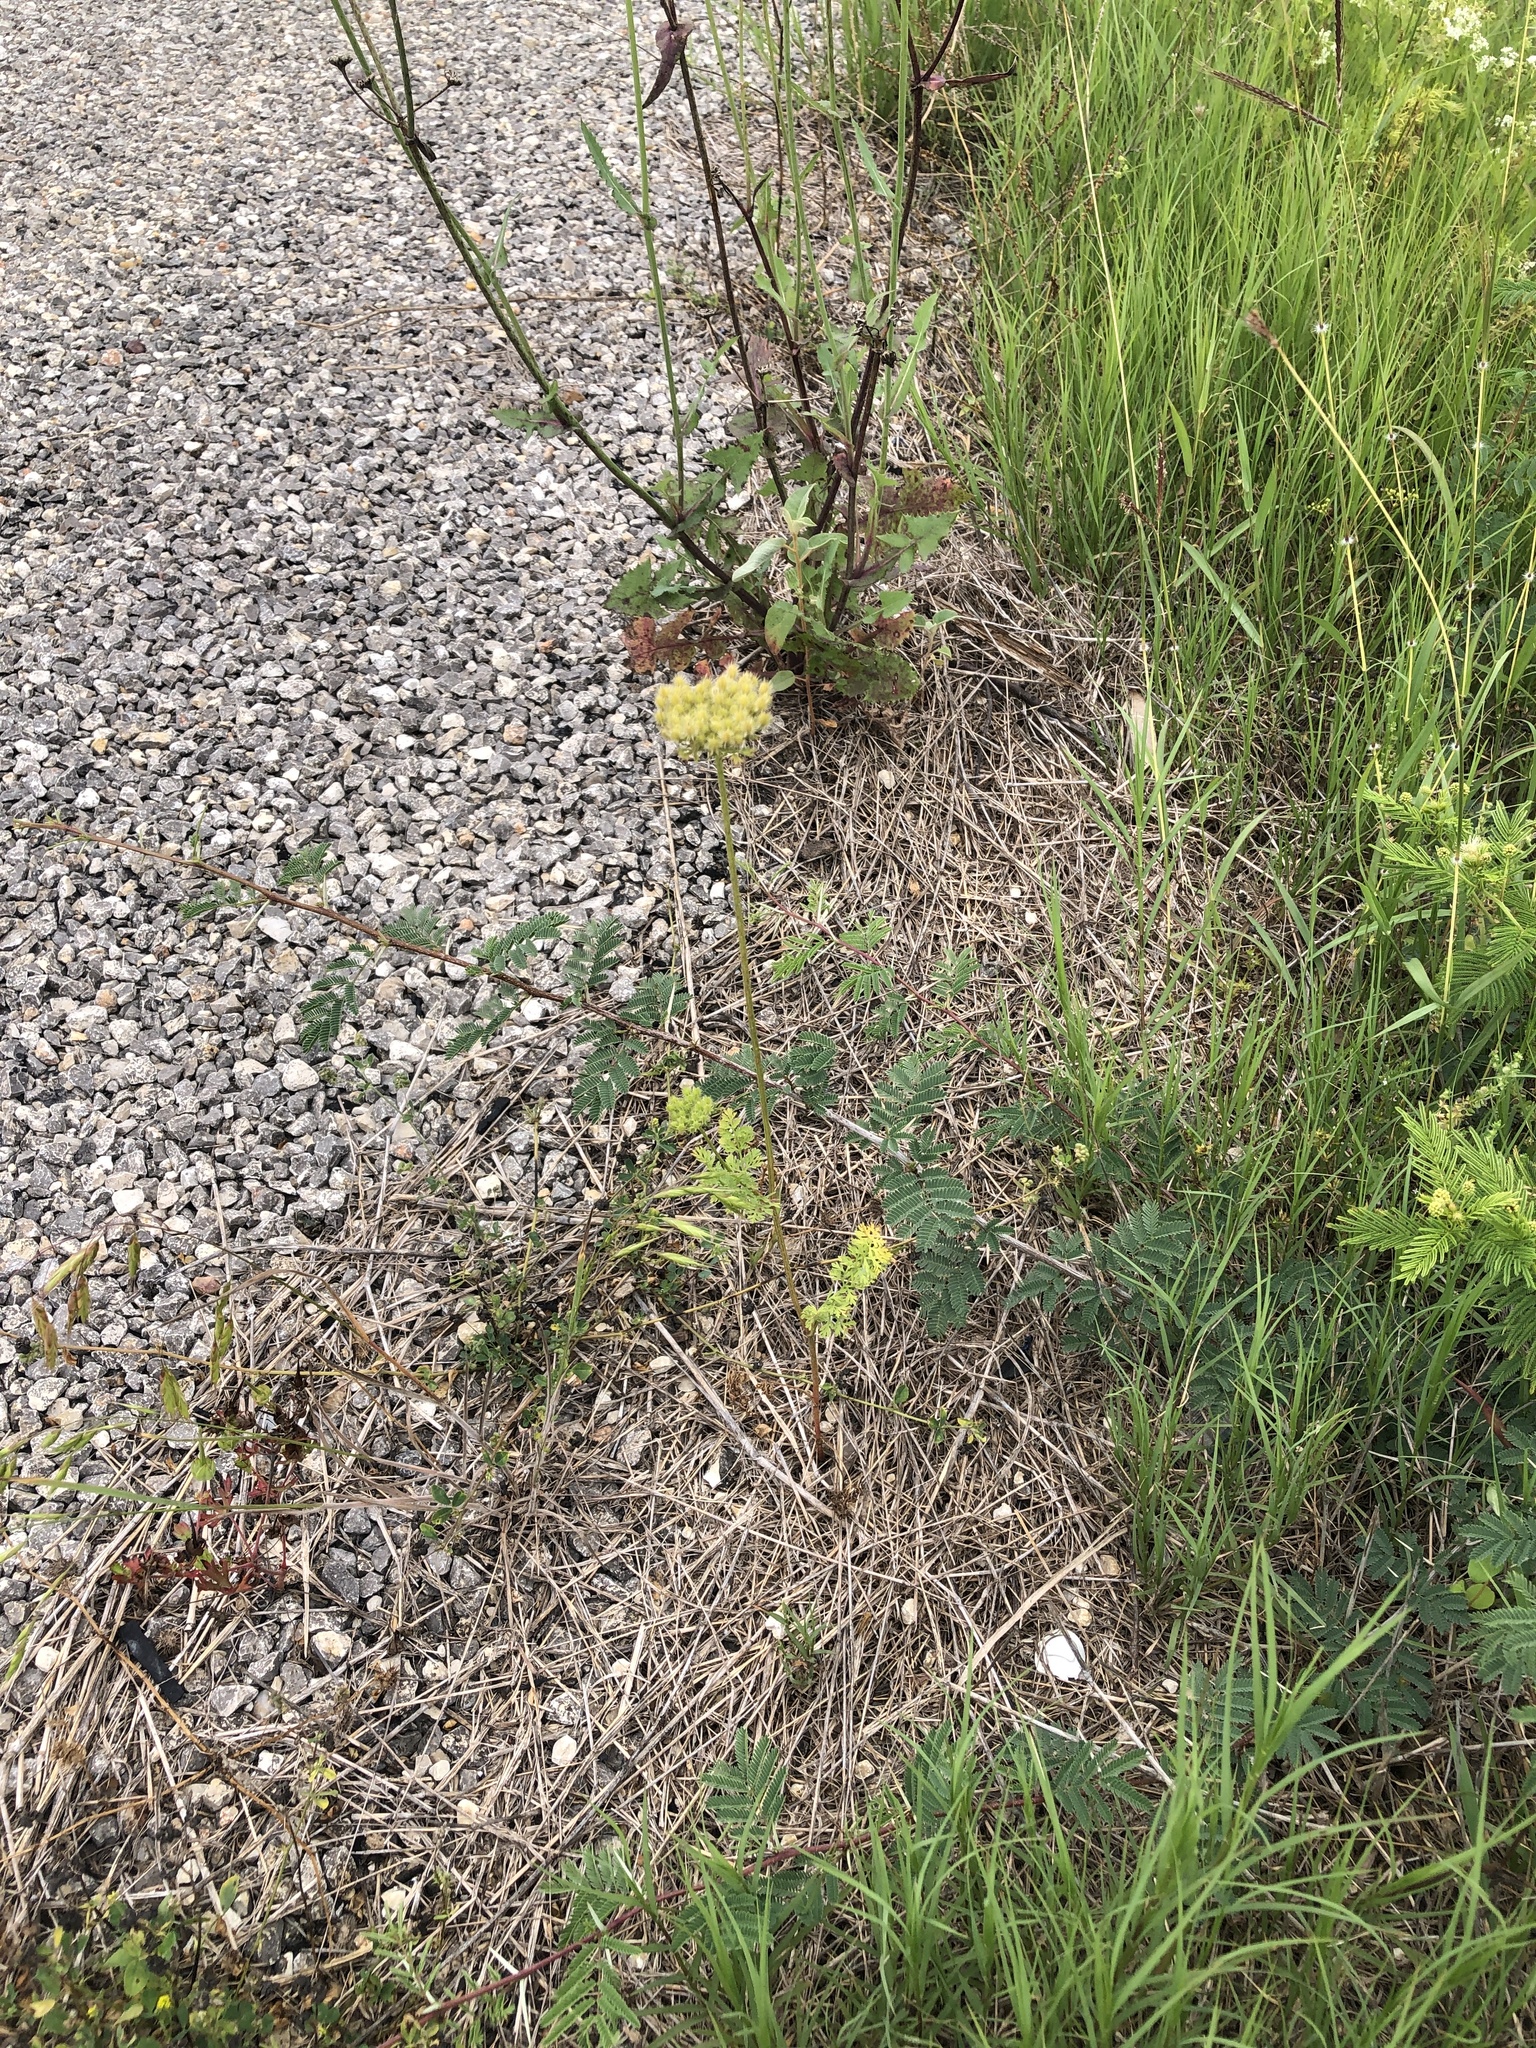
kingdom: Plantae
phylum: Tracheophyta
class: Magnoliopsida
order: Apiales
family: Apiaceae
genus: Daucus
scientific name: Daucus pusillus
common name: Southwest wild carrot
